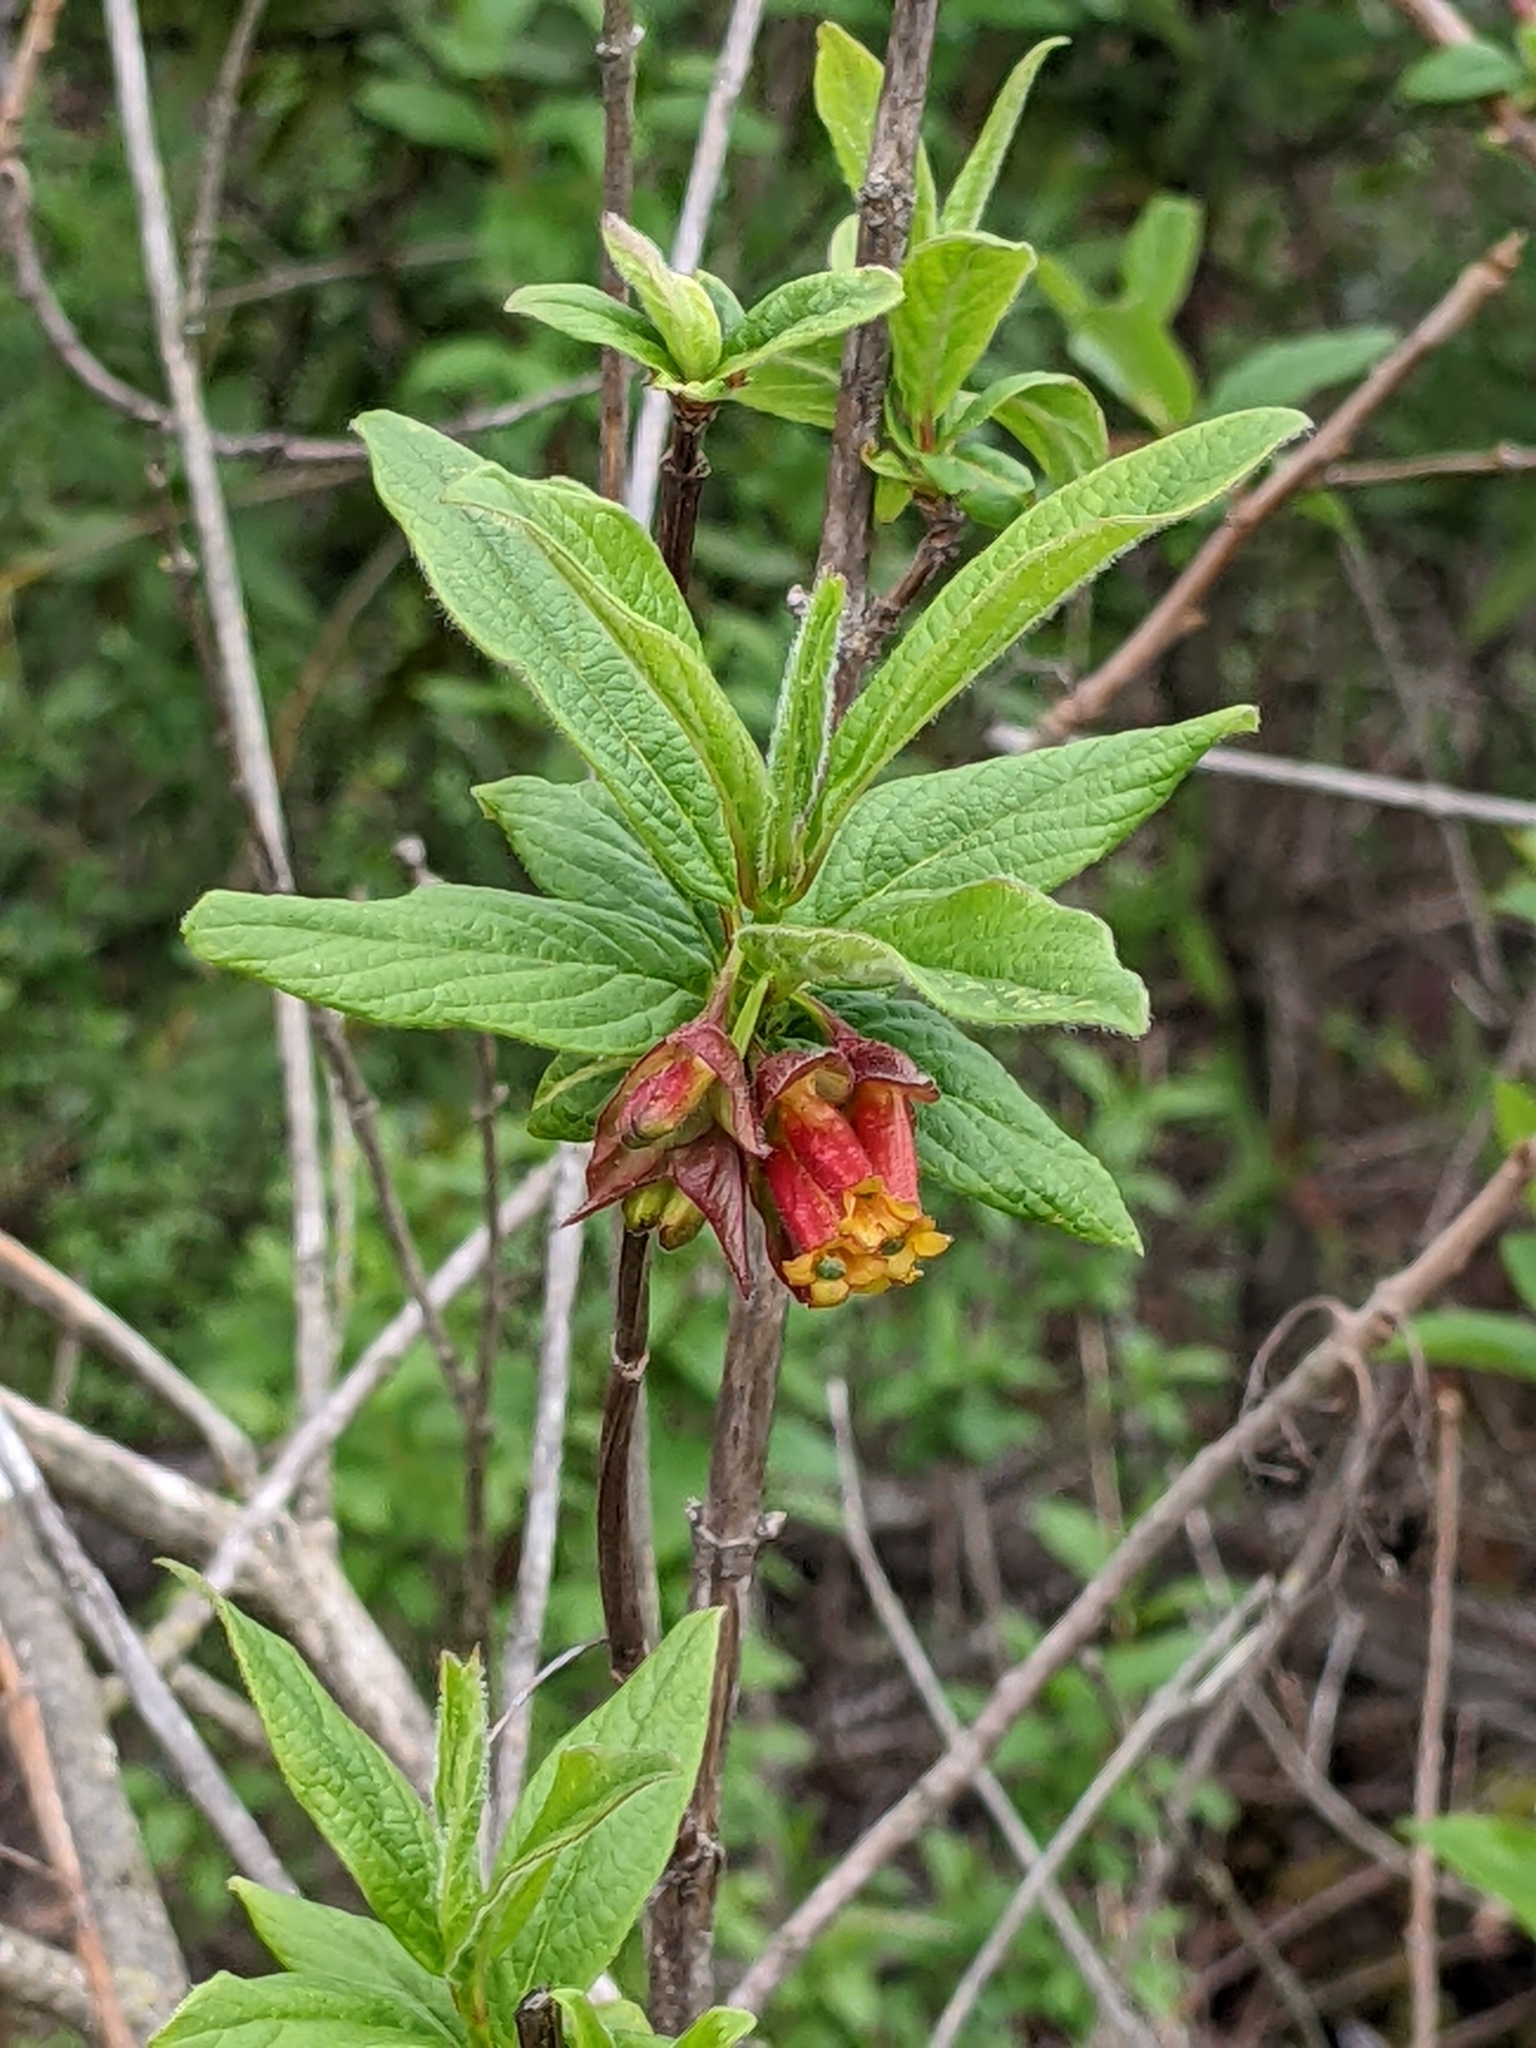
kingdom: Plantae
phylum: Tracheophyta
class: Magnoliopsida
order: Dipsacales
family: Caprifoliaceae
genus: Lonicera
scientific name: Lonicera involucrata
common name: Californian honeysuckle
